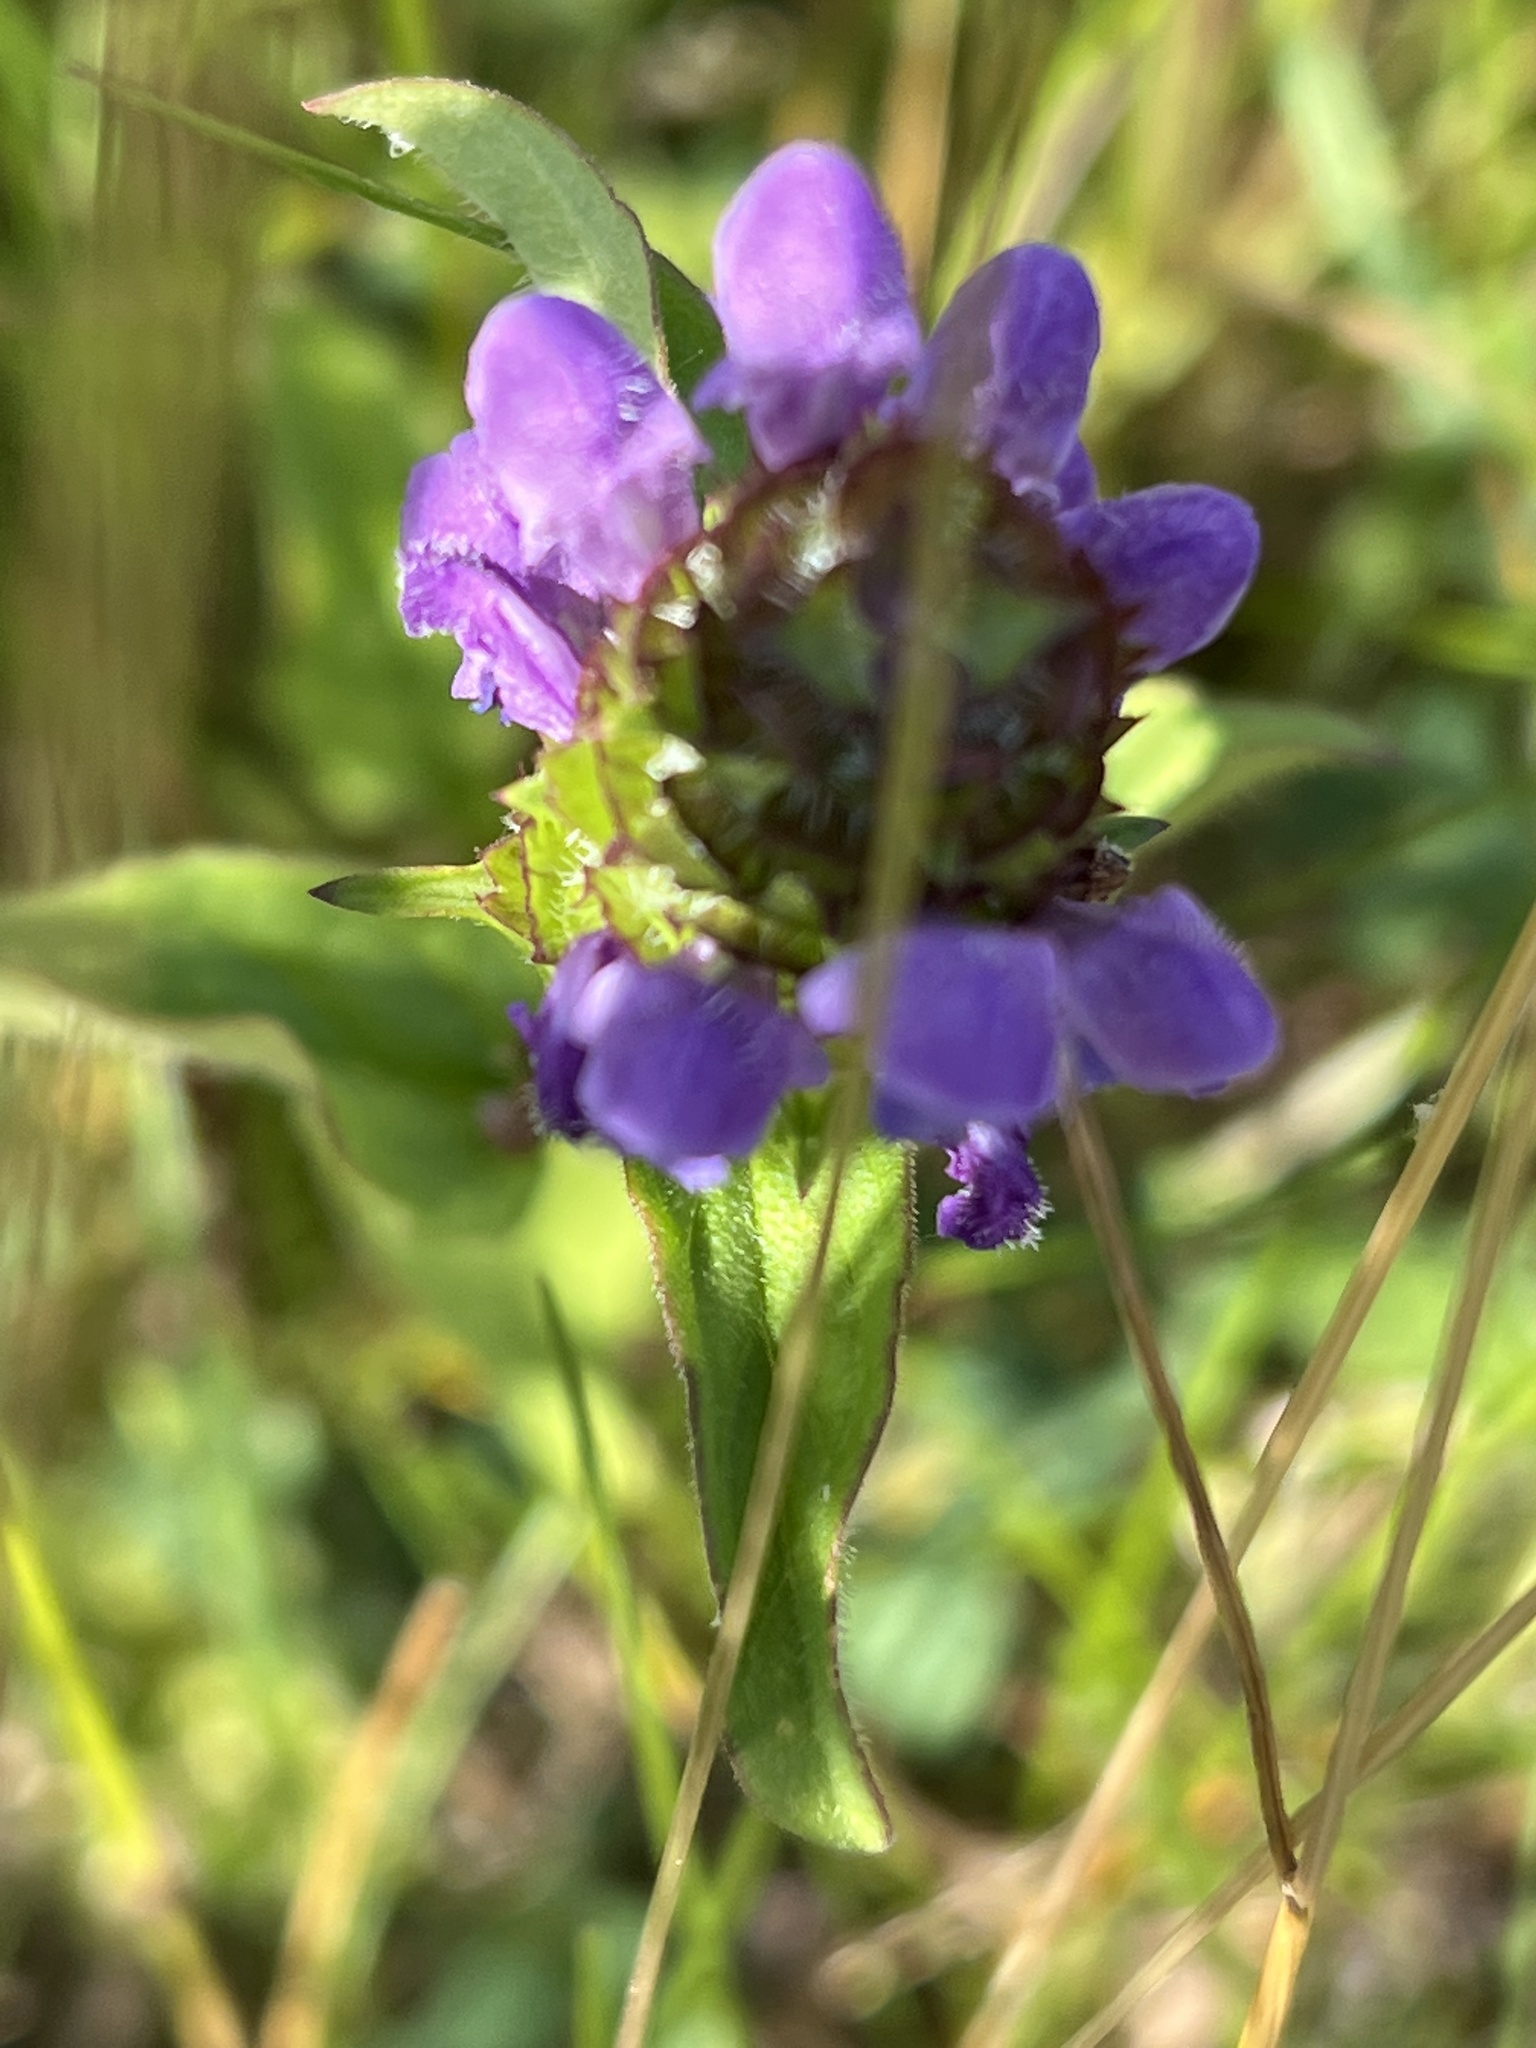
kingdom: Plantae
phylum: Tracheophyta
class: Magnoliopsida
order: Lamiales
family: Lamiaceae
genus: Prunella
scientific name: Prunella vulgaris
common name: Heal-all
